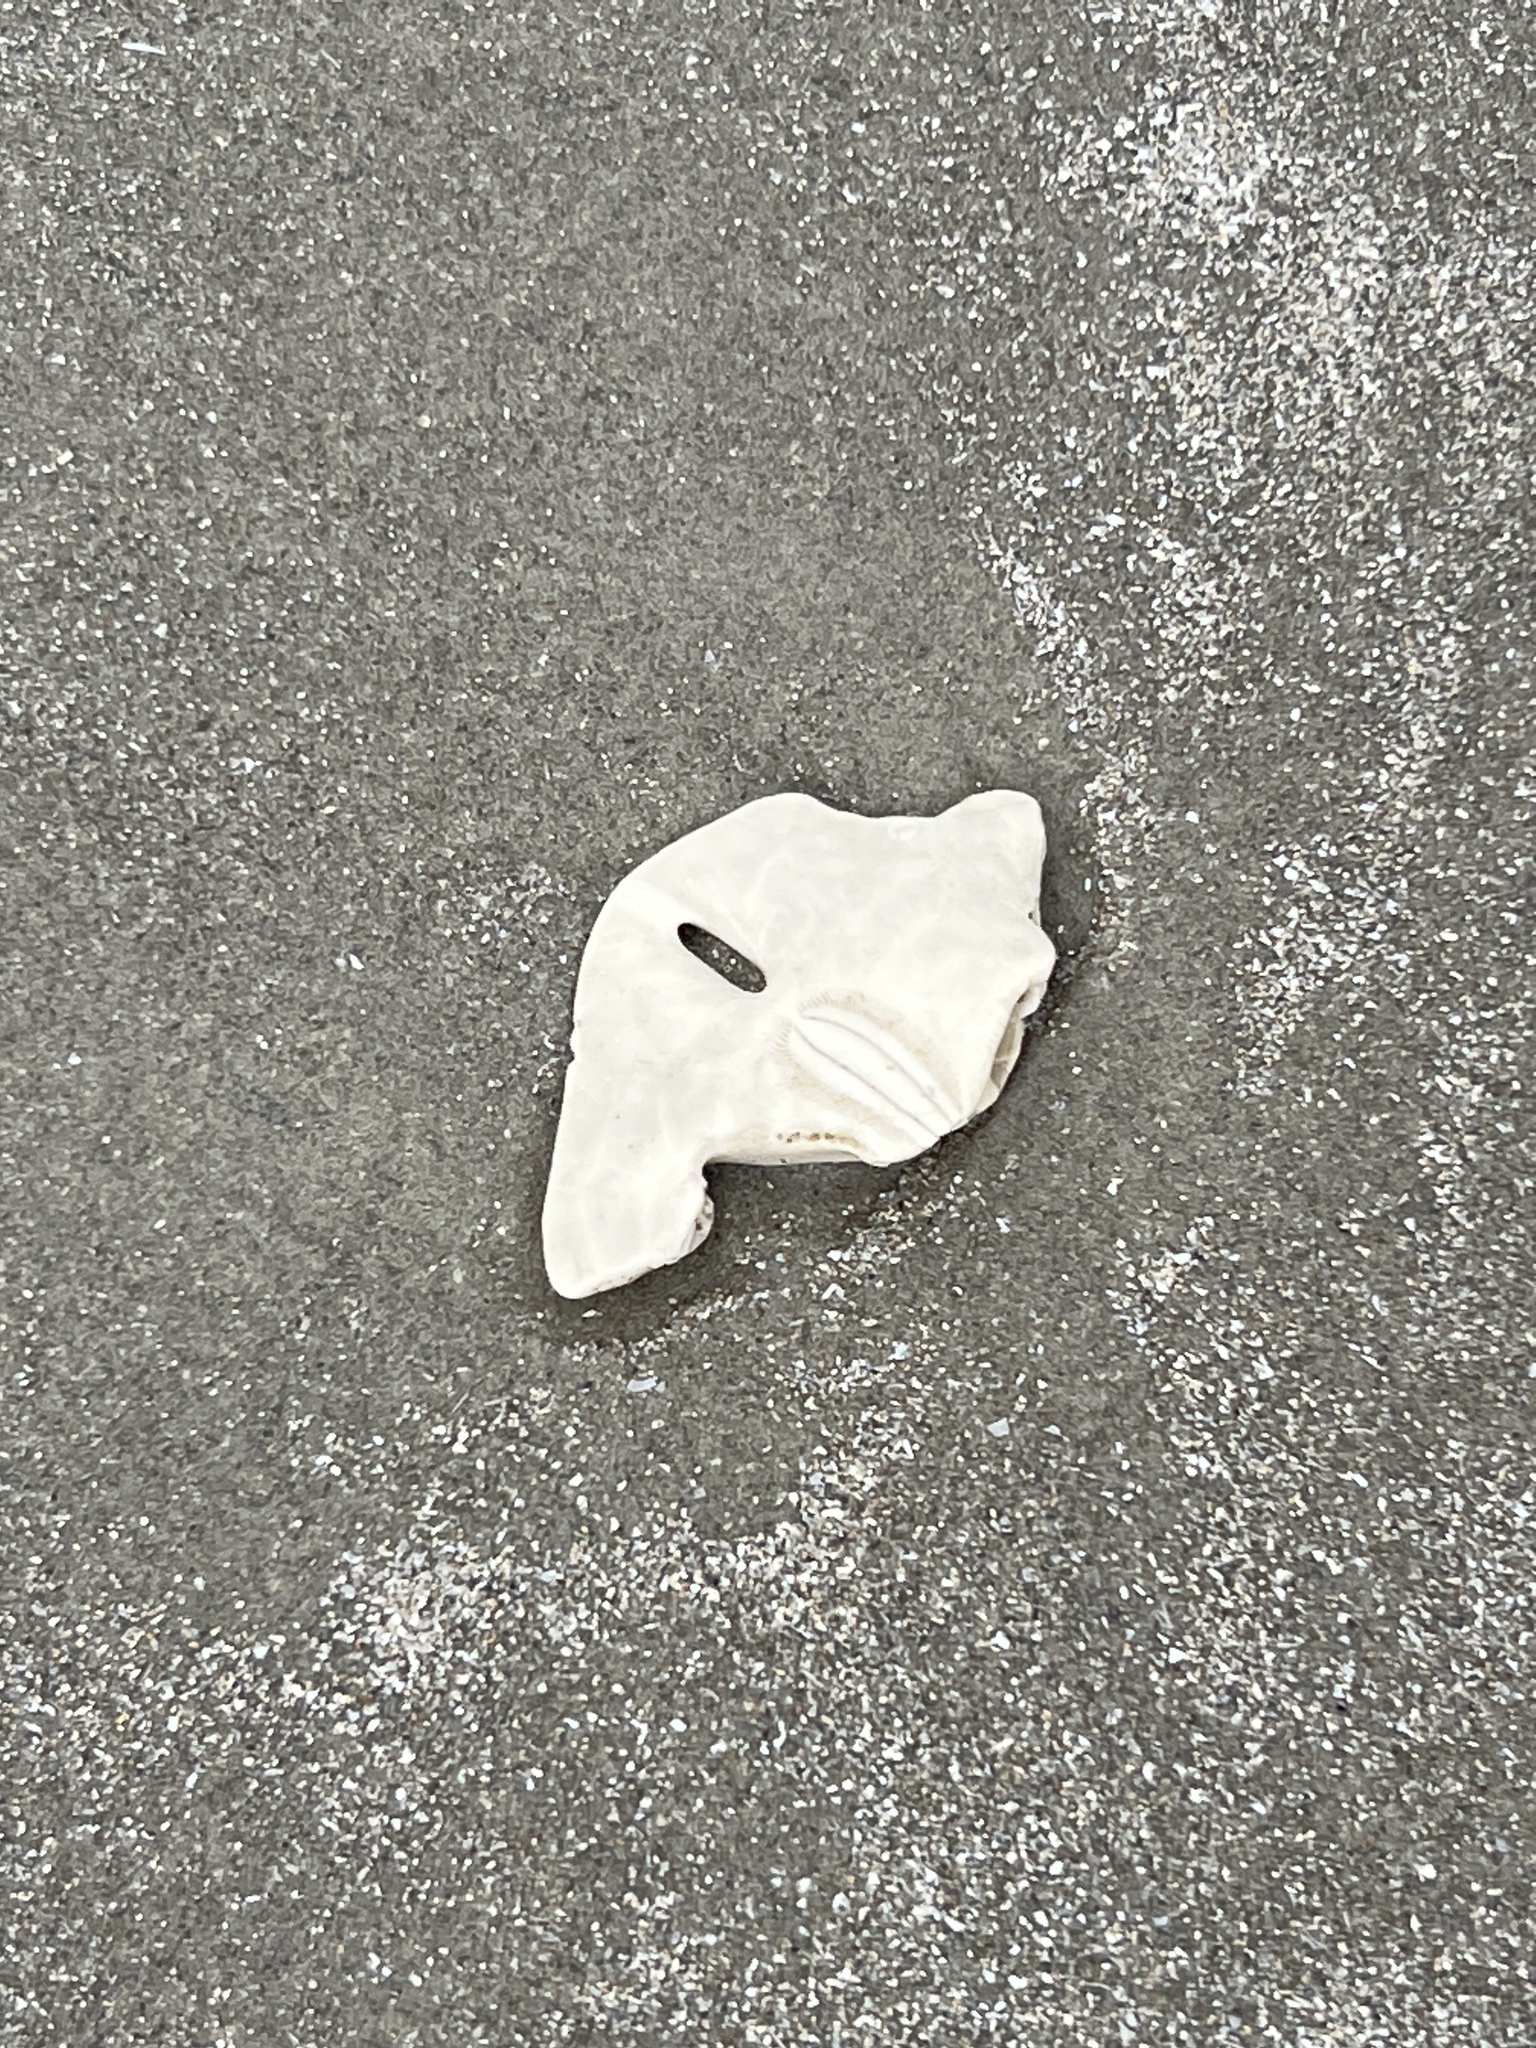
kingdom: Animalia
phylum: Echinodermata
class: Echinoidea
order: Echinolampadacea
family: Mellitidae
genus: Mellita
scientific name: Mellita quinquiesperforata
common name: Sand dollar
